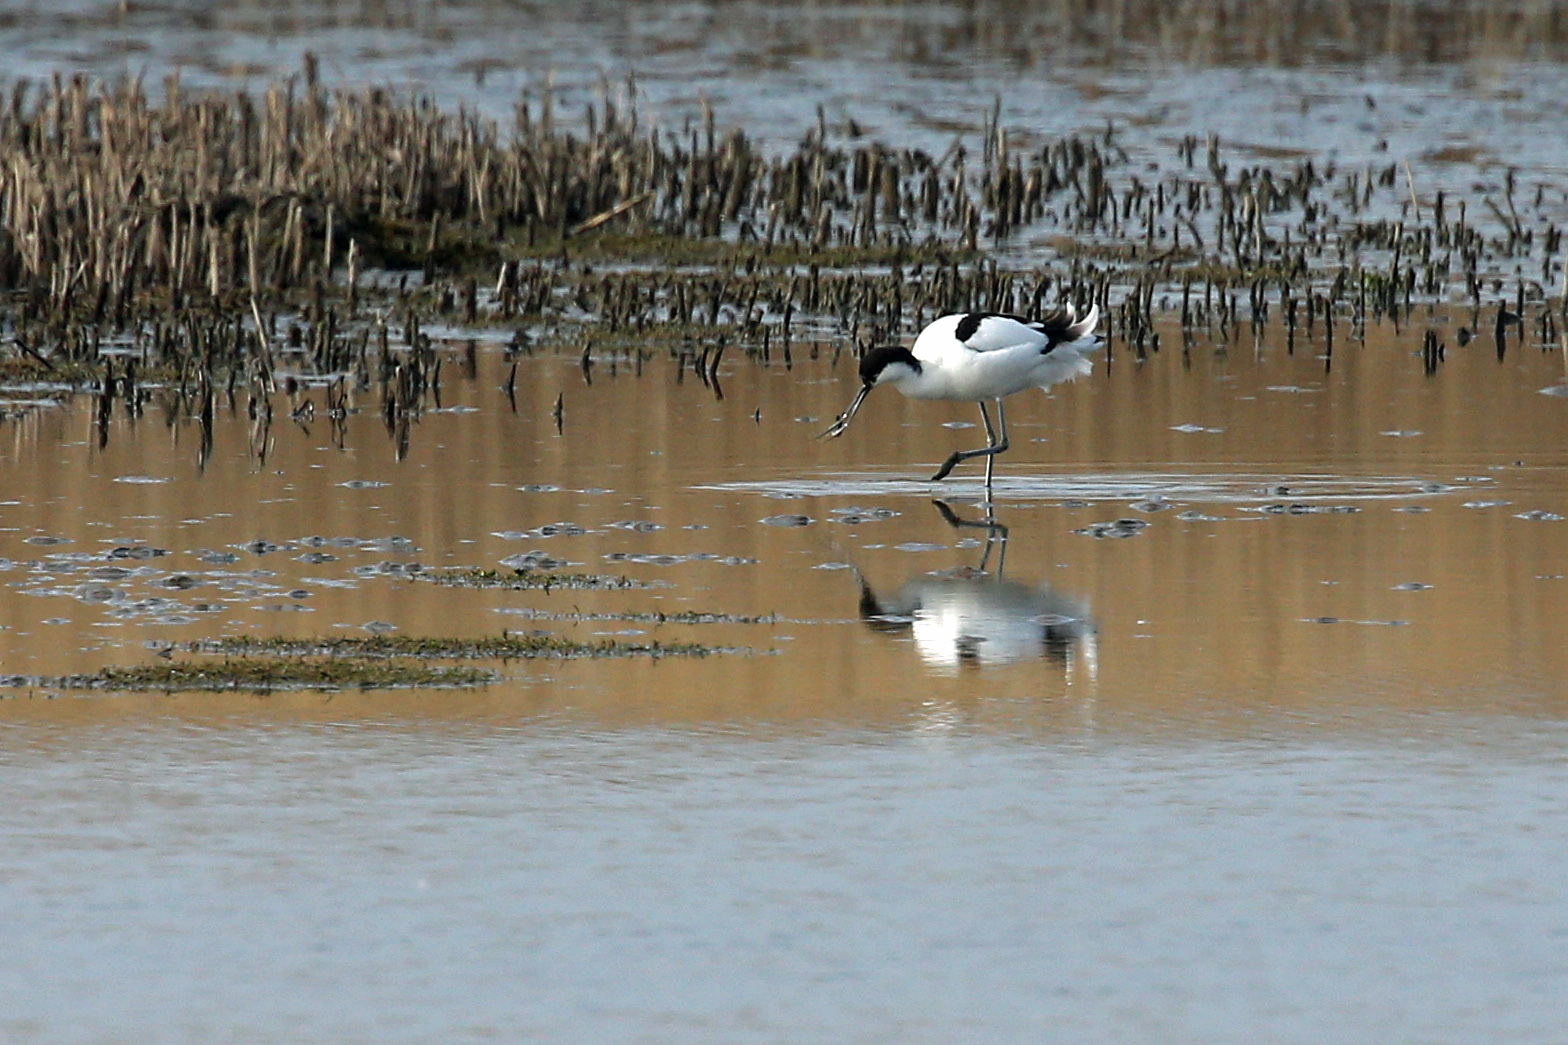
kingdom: Animalia
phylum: Chordata
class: Aves
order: Charadriiformes
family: Recurvirostridae
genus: Recurvirostra
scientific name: Recurvirostra avosetta
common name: Pied avocet
